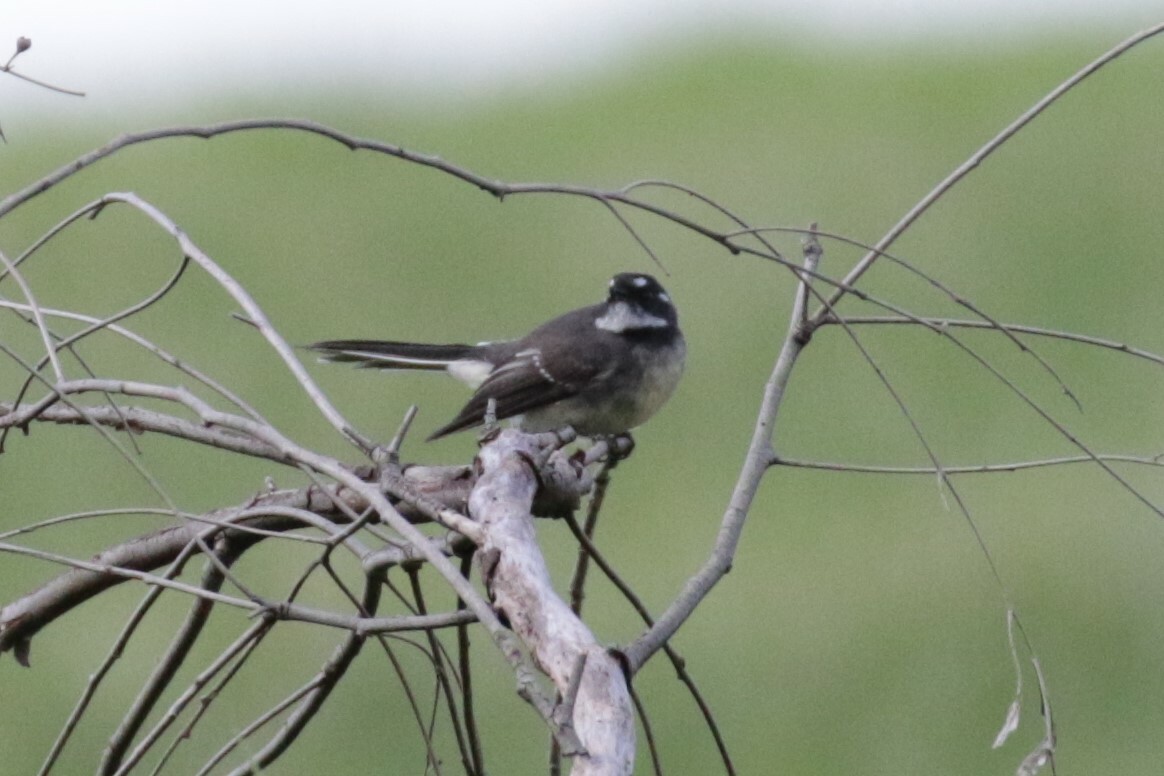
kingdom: Animalia
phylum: Chordata
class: Aves
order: Passeriformes
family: Rhipiduridae
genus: Rhipidura
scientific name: Rhipidura albiscapa
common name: Grey fantail
